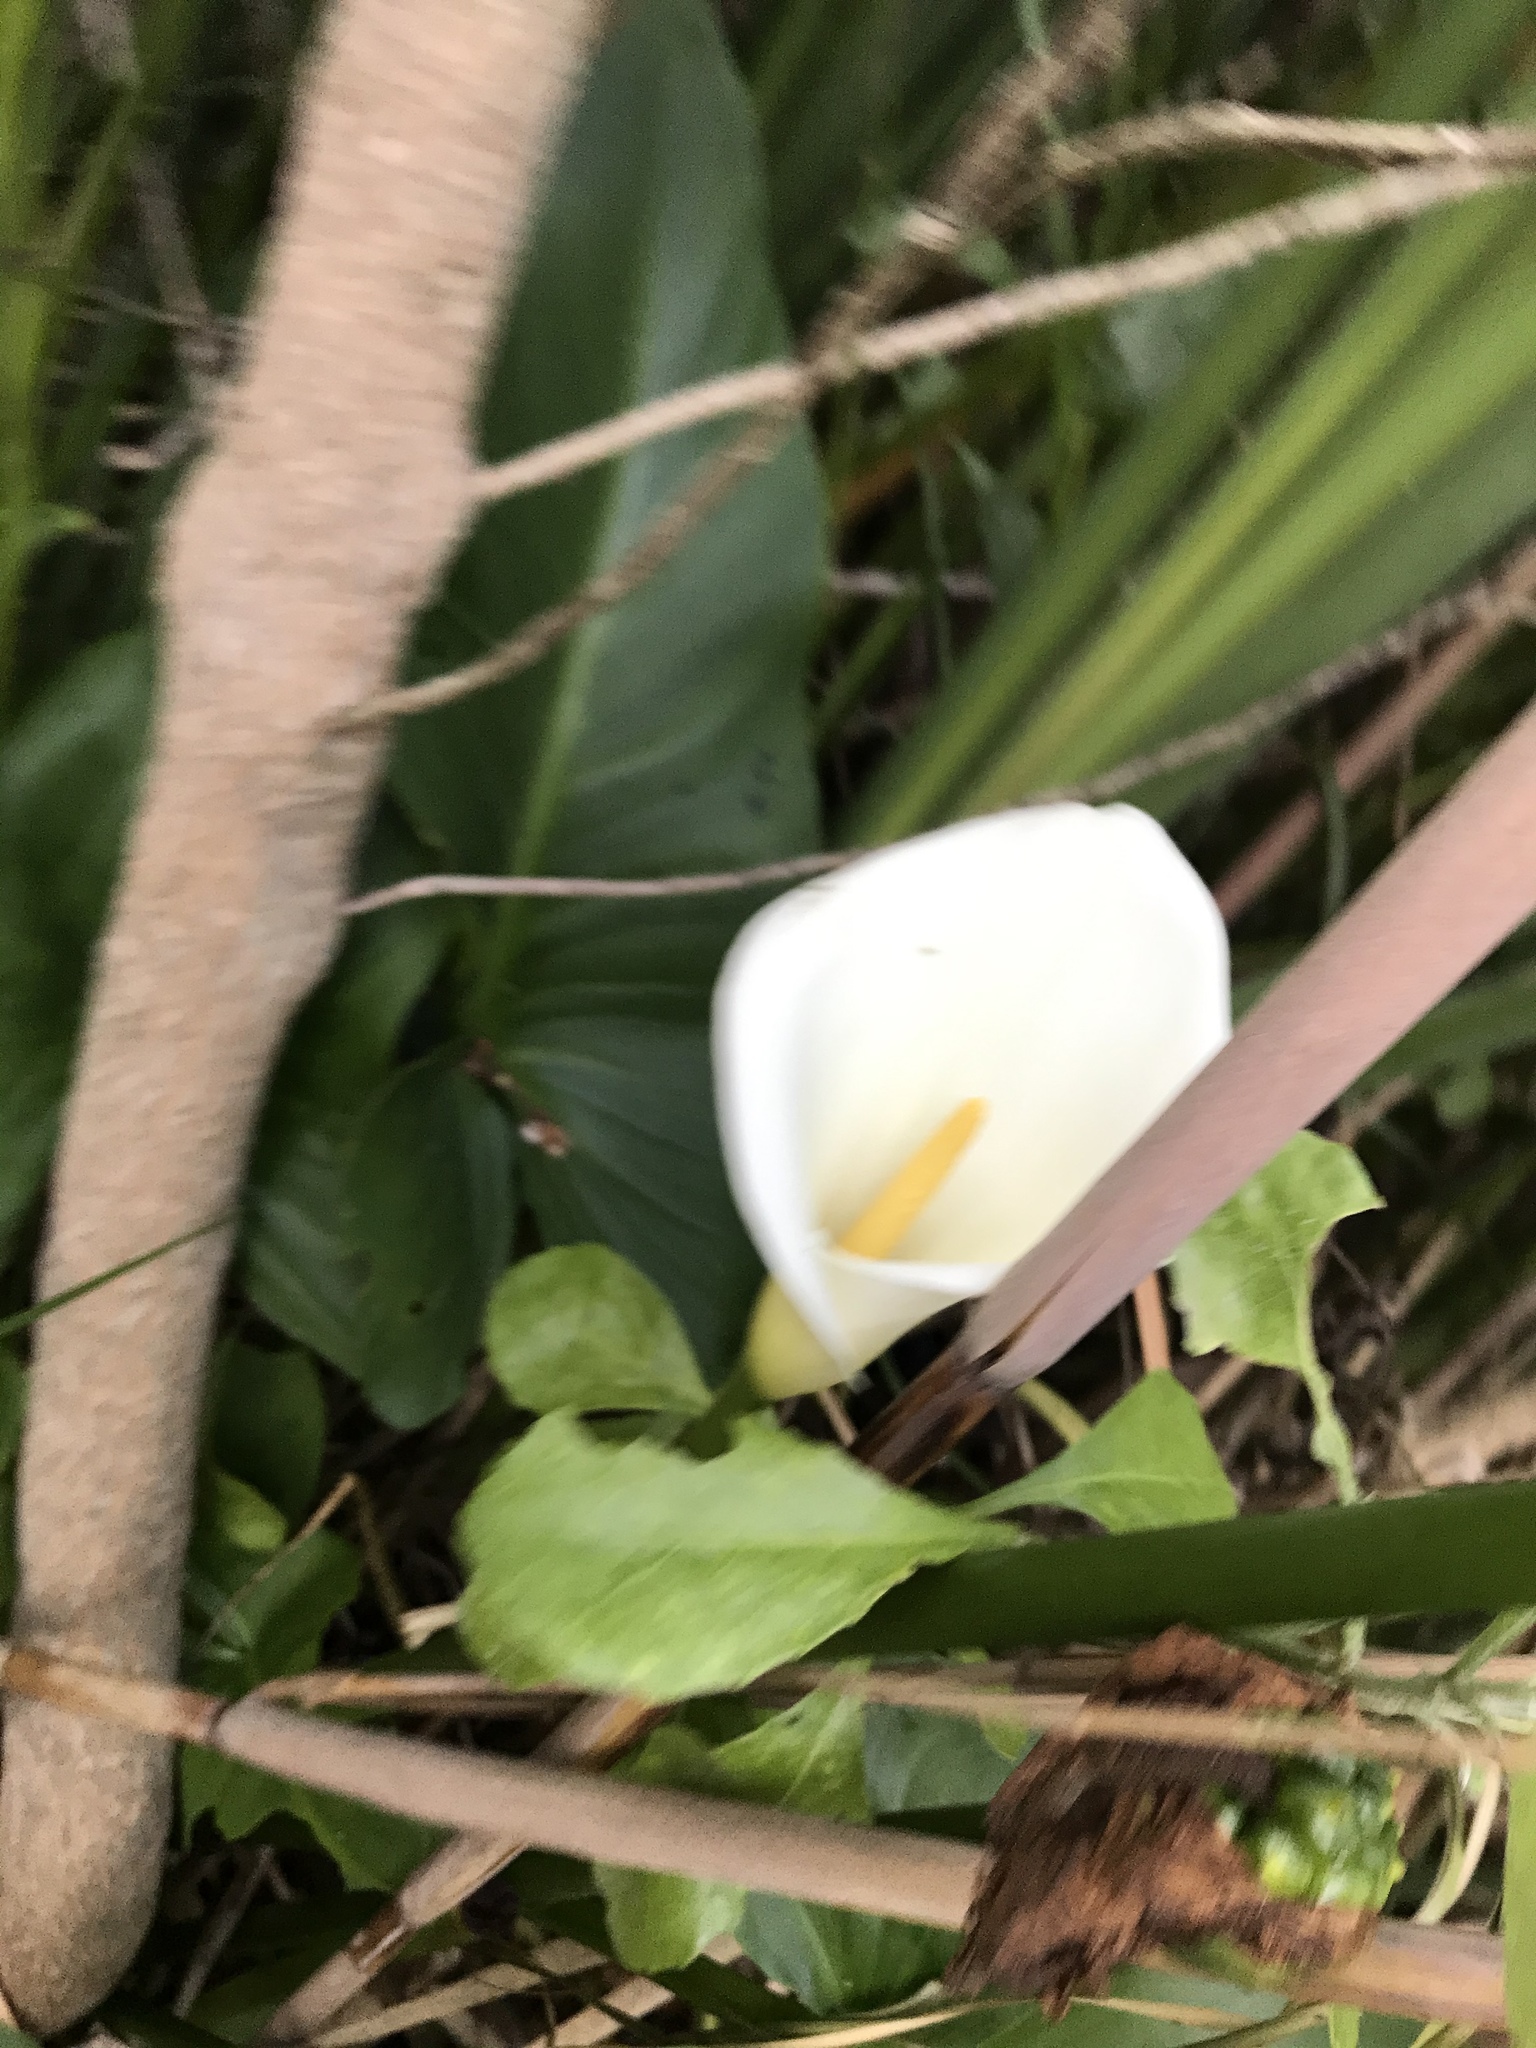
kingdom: Plantae
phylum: Tracheophyta
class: Liliopsida
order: Alismatales
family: Araceae
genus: Zantedeschia
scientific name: Zantedeschia aethiopica
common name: Altar-lily
